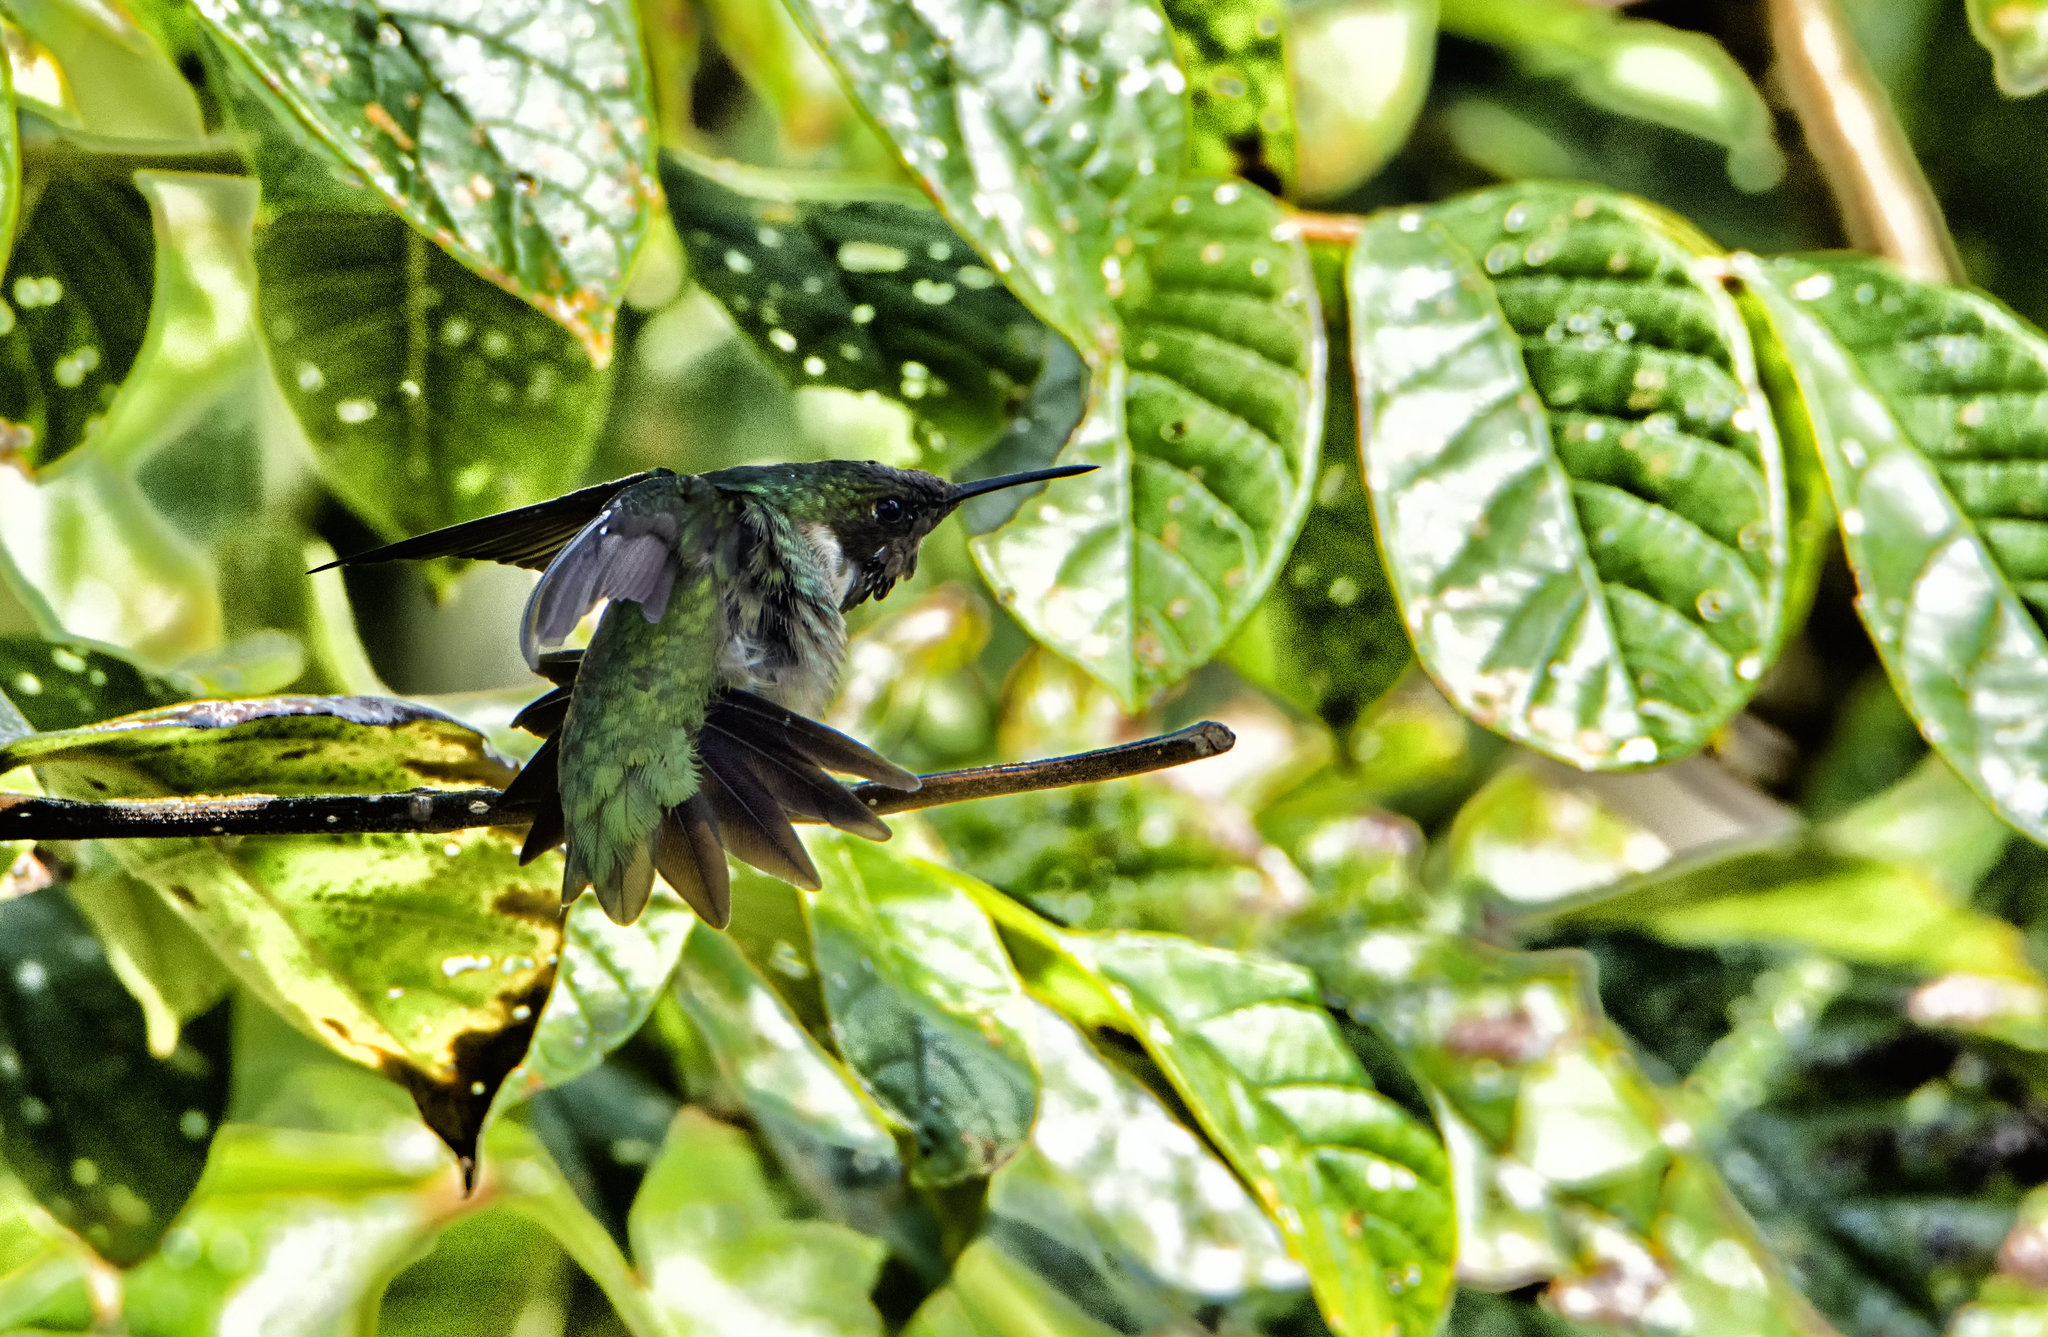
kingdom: Animalia
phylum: Chordata
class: Aves
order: Apodiformes
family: Trochilidae
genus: Archilochus
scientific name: Archilochus colubris
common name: Ruby-throated hummingbird
